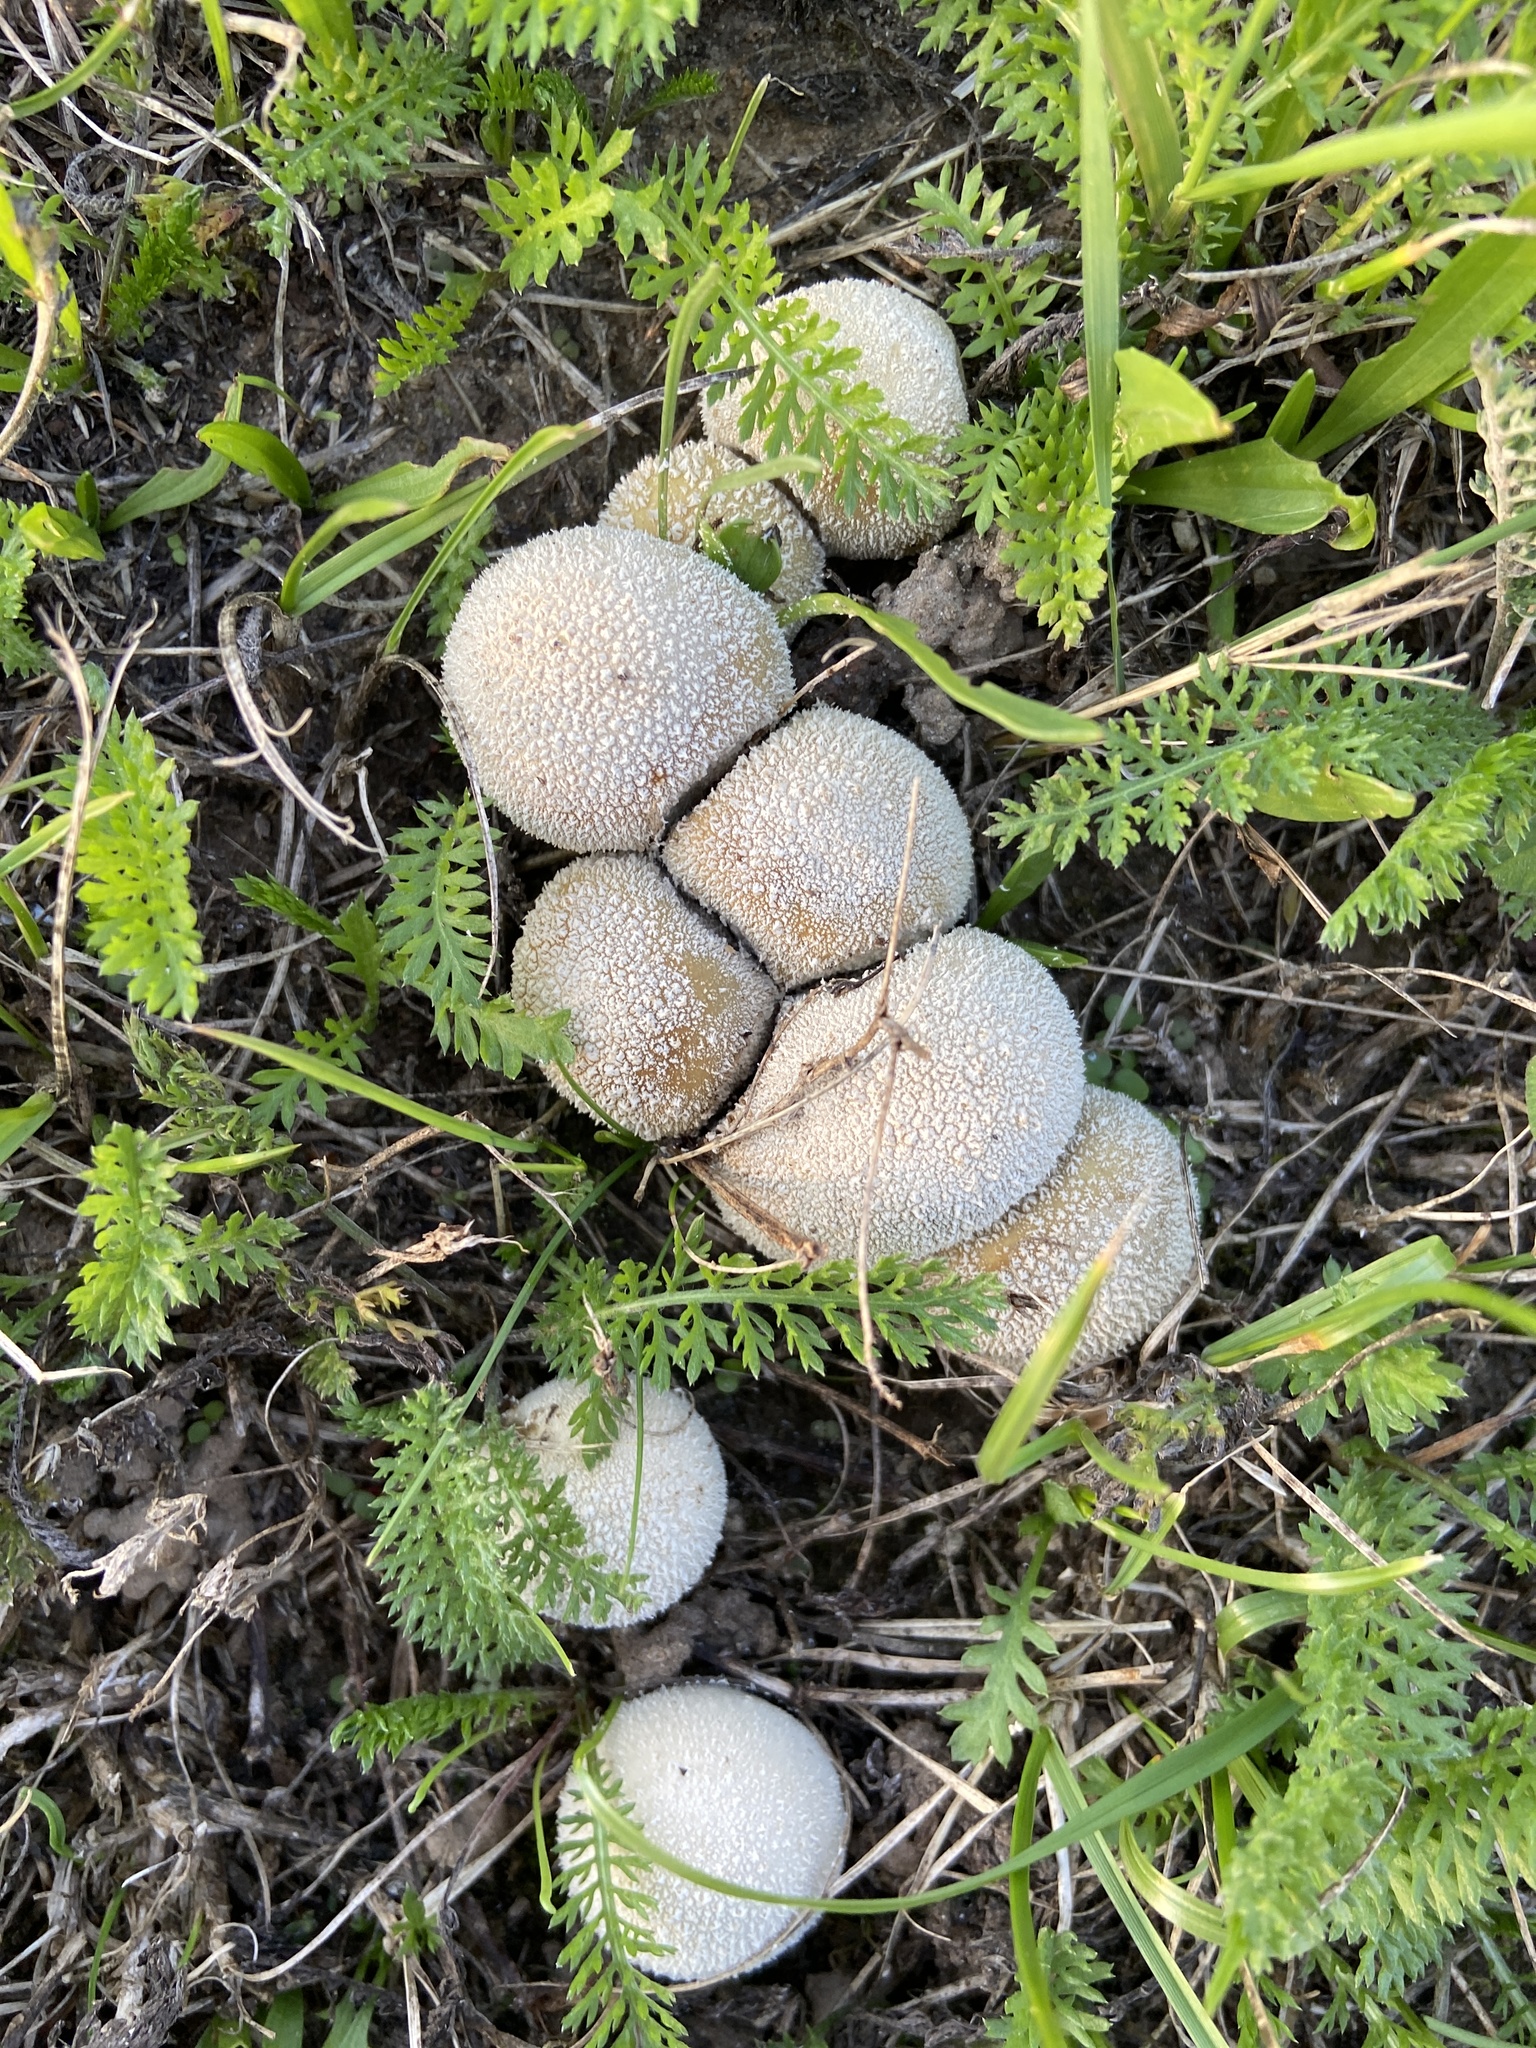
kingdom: Fungi
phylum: Basidiomycota
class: Agaricomycetes
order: Agaricales
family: Lycoperdaceae
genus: Lycoperdon
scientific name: Lycoperdon pratense
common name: Meadow puffball
